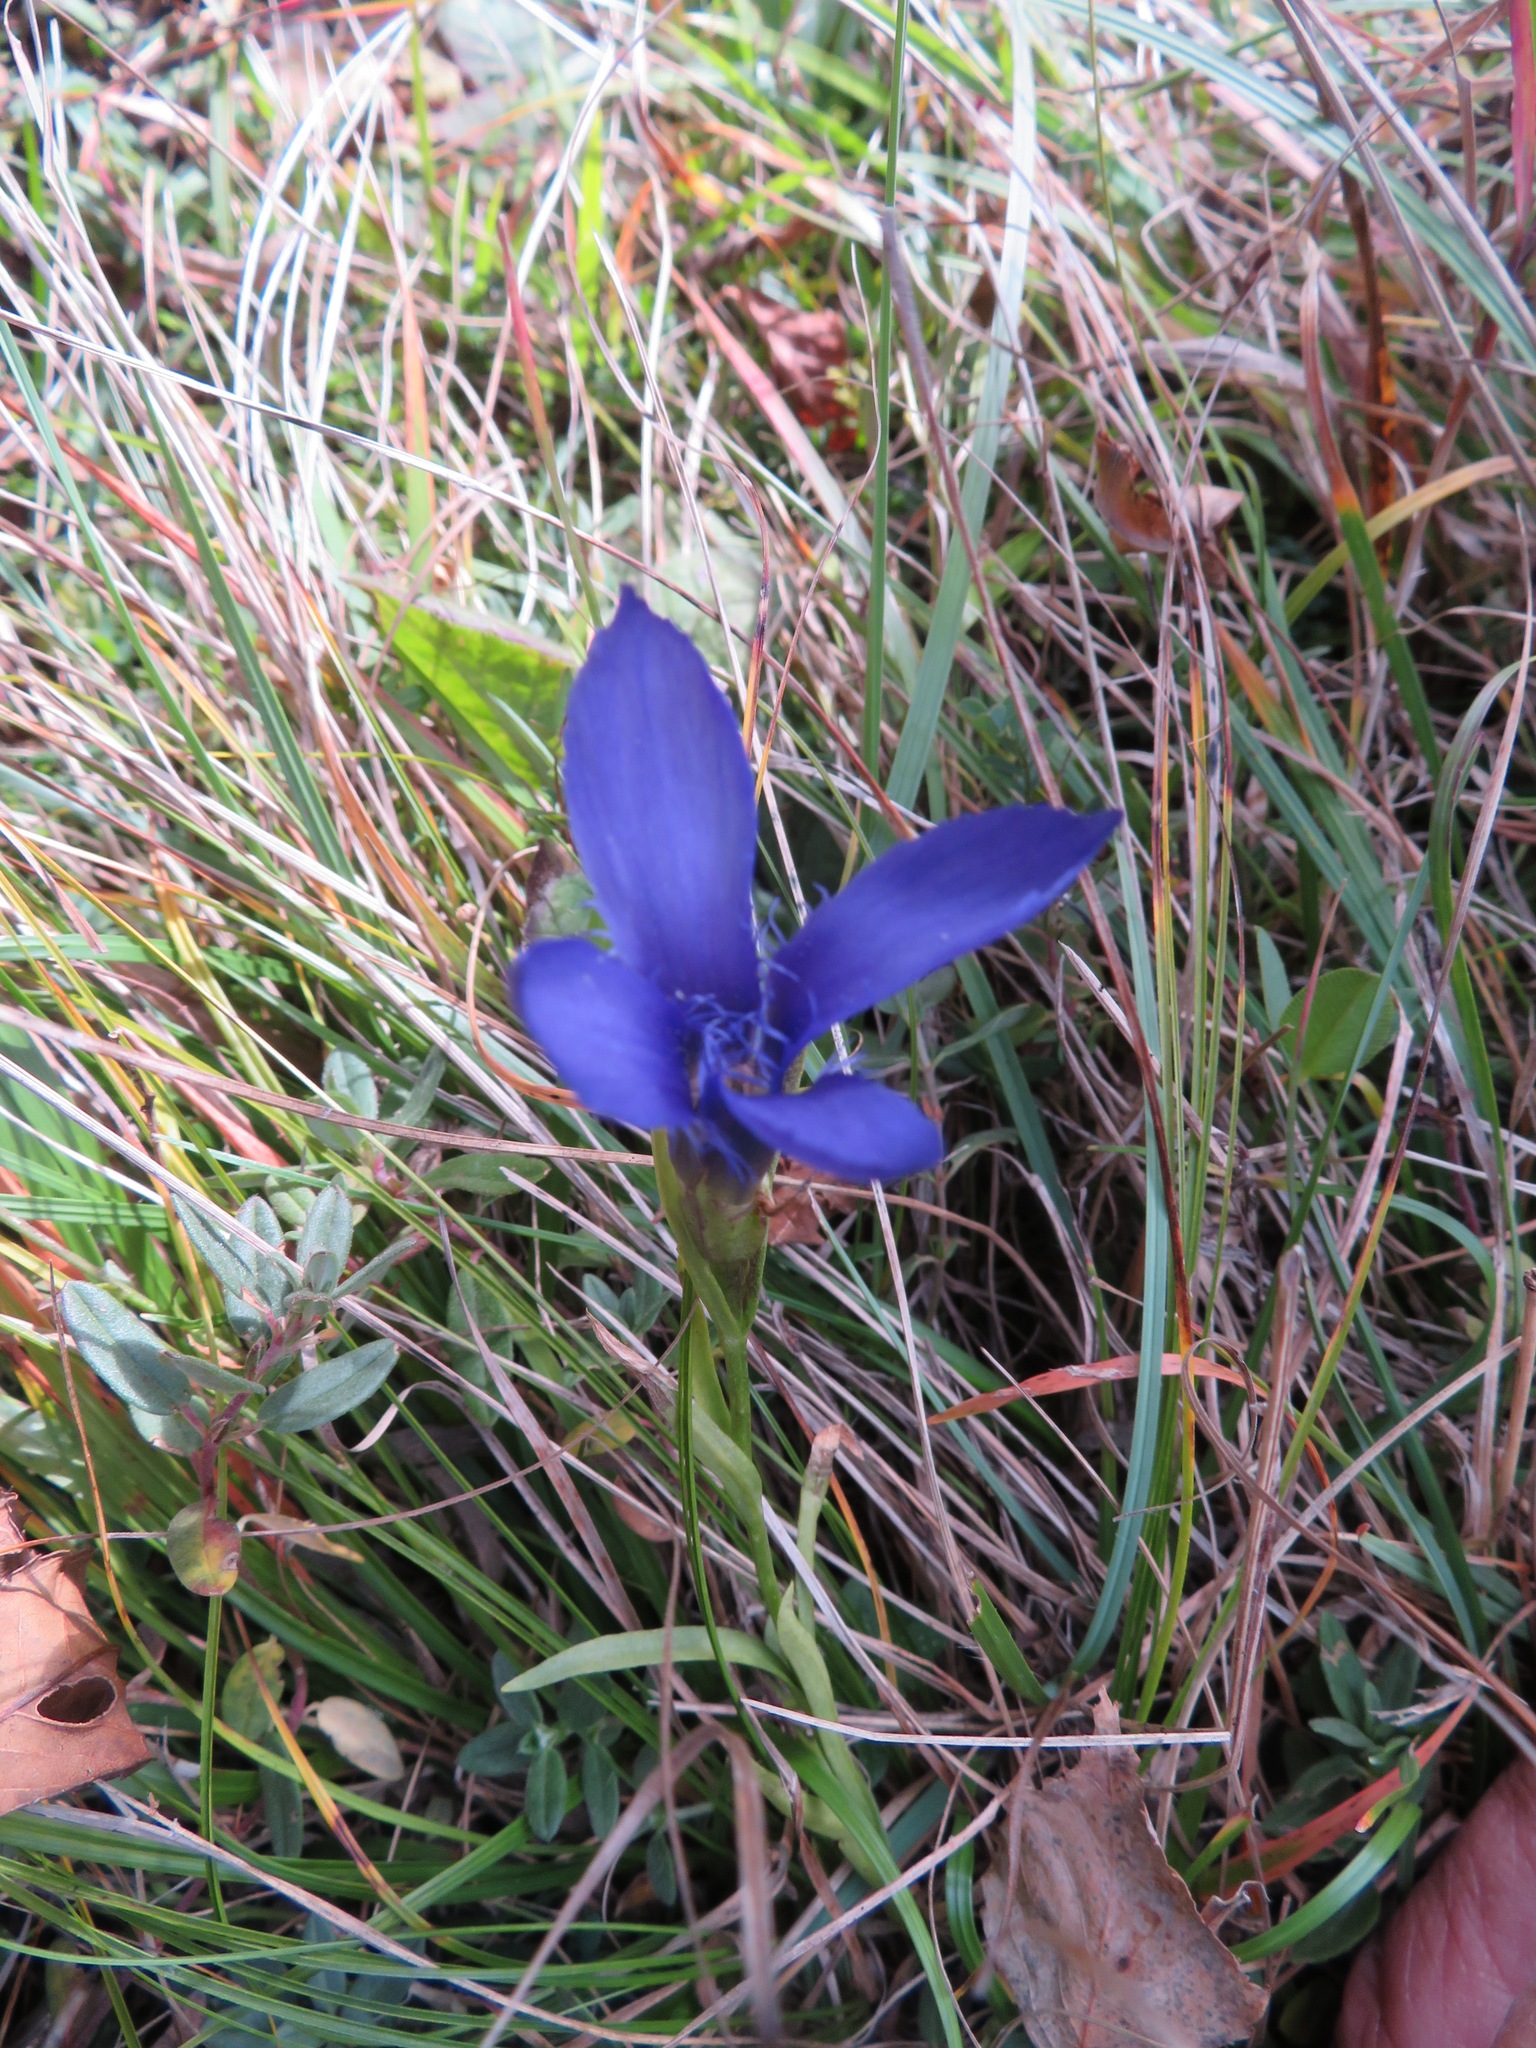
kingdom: Plantae
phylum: Tracheophyta
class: Magnoliopsida
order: Gentianales
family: Gentianaceae
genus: Gentianopsis
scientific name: Gentianopsis ciliata
